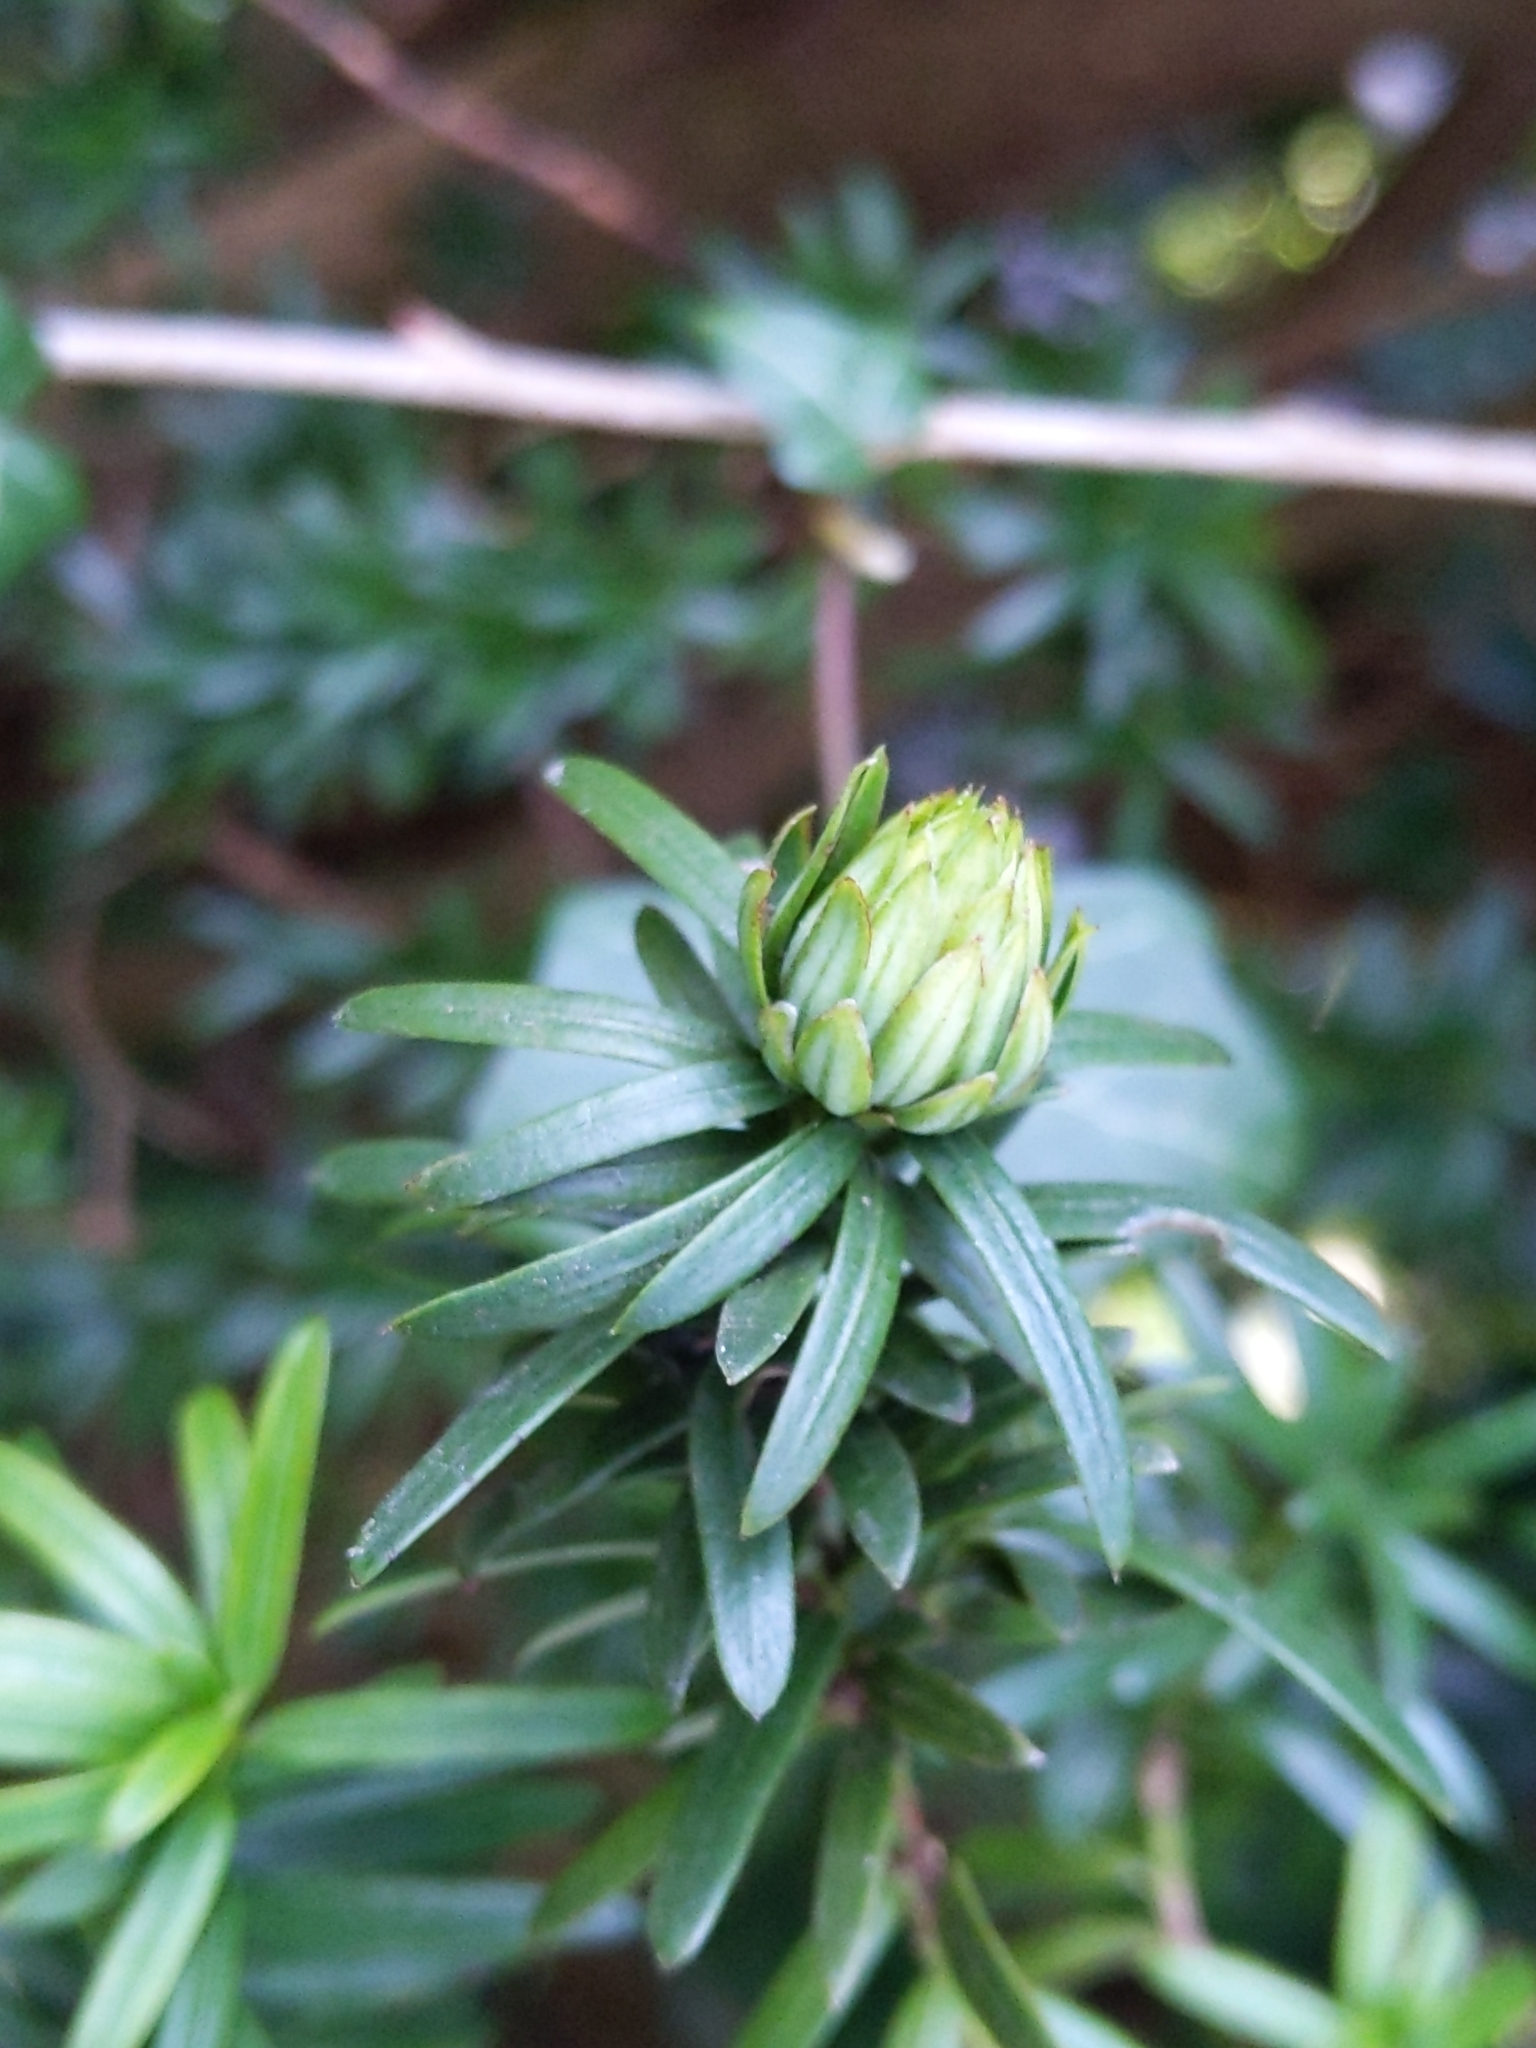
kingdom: Animalia
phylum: Arthropoda
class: Insecta
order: Diptera
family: Cecidomyiidae
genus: Taxomyia
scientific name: Taxomyia taxi
